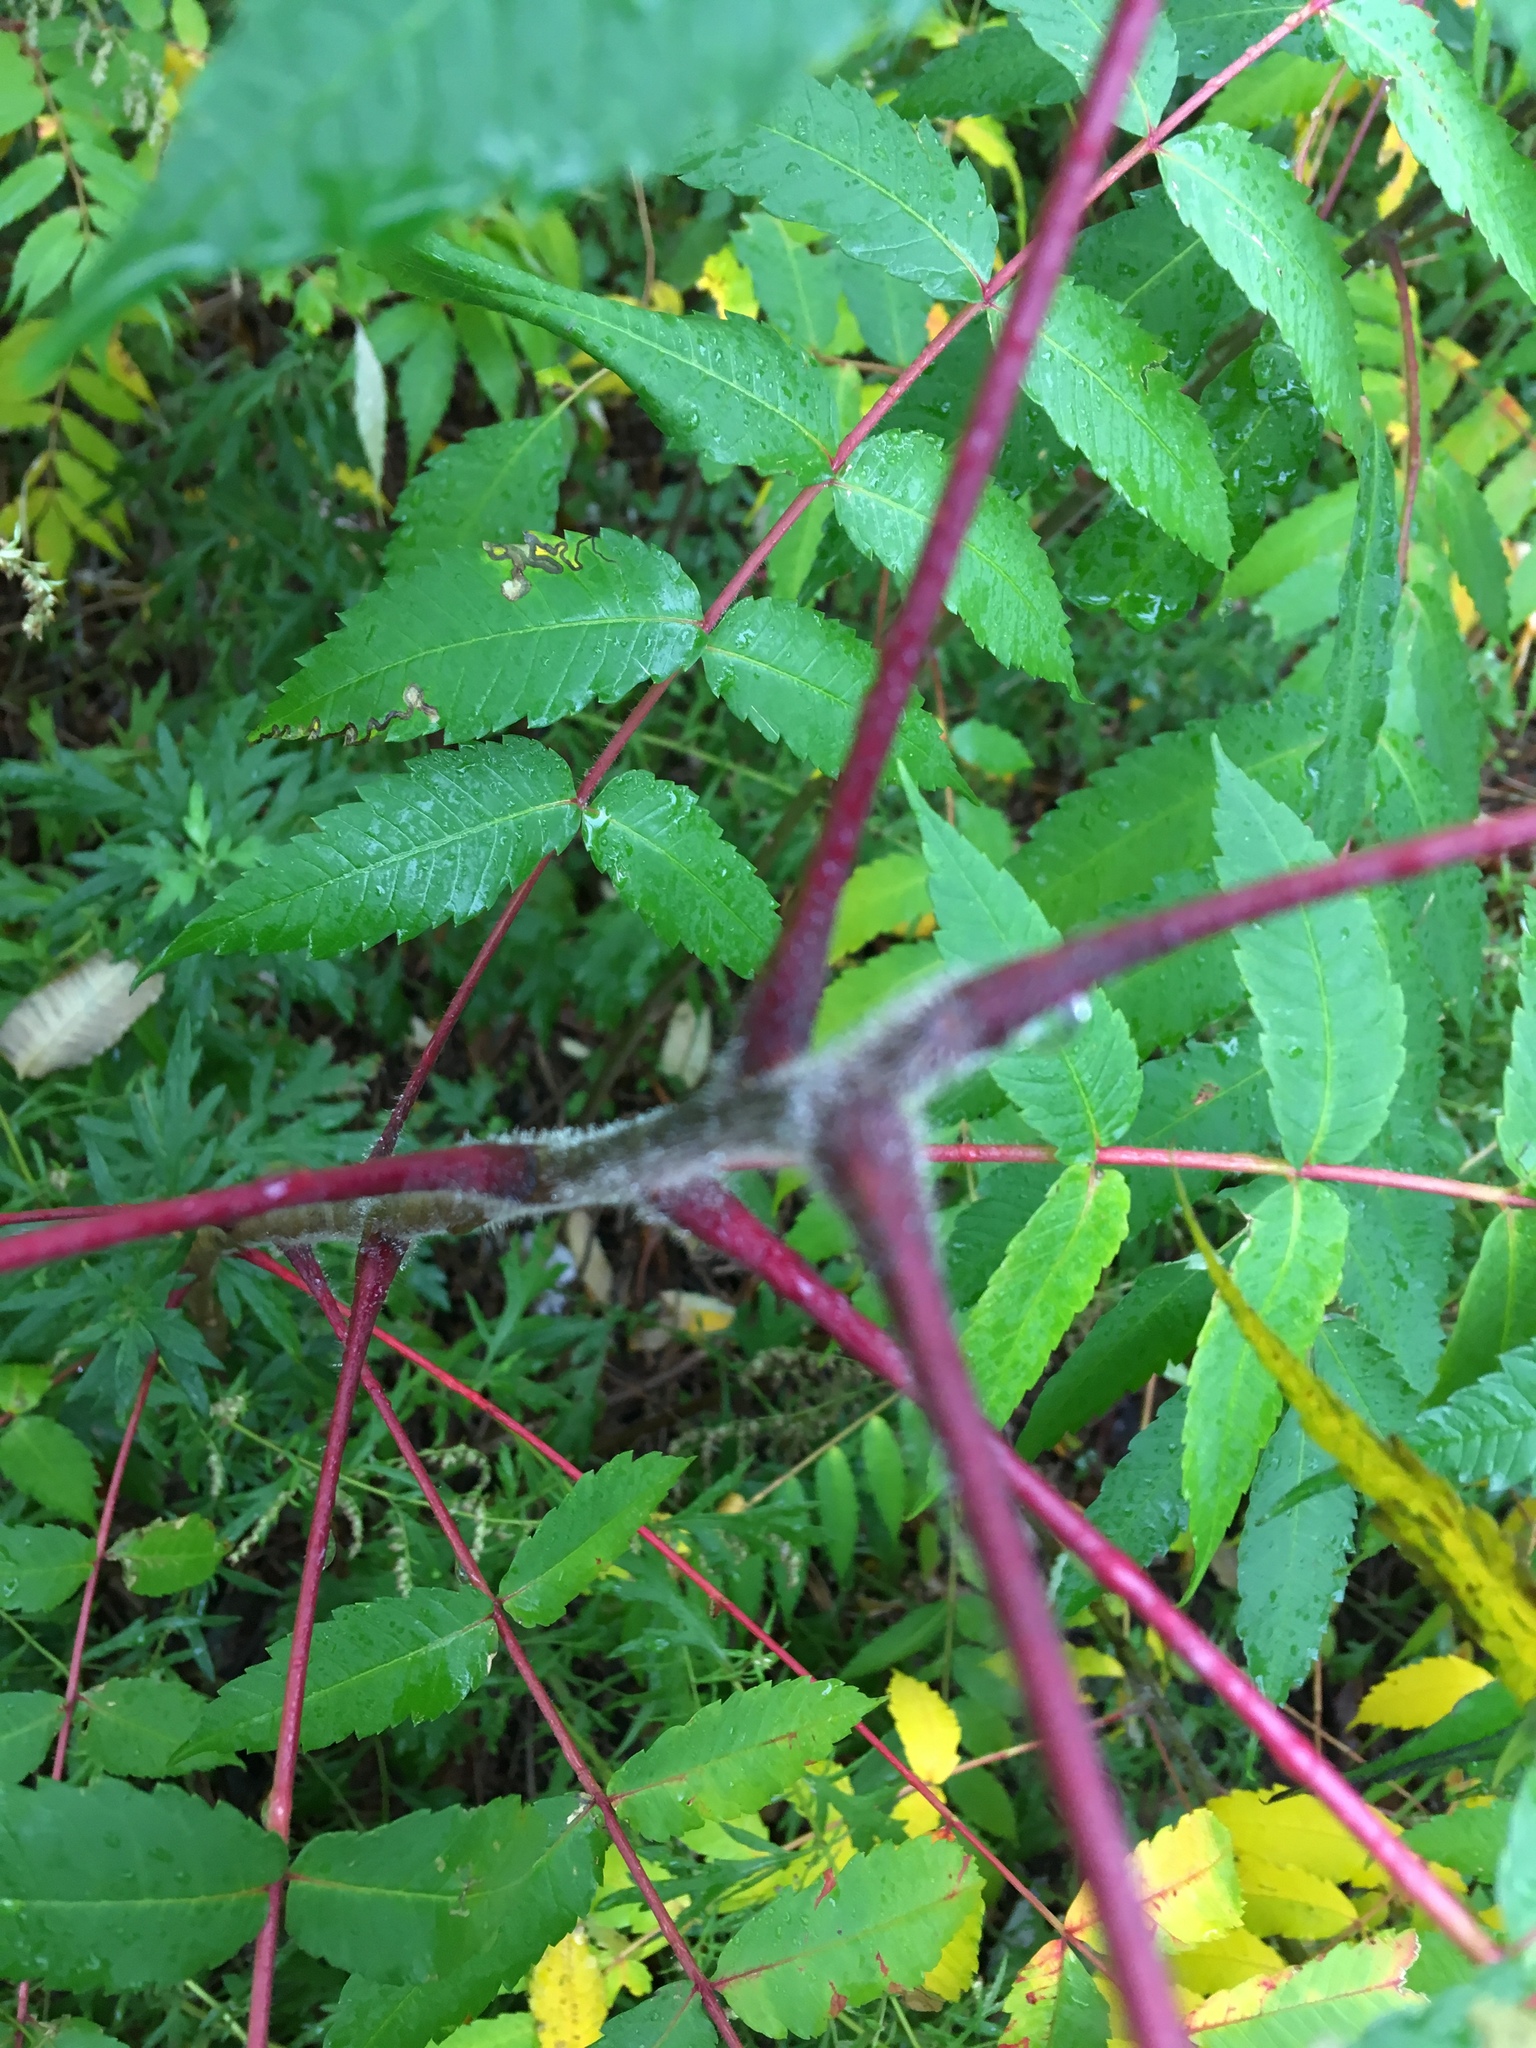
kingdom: Plantae
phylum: Tracheophyta
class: Magnoliopsida
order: Sapindales
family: Anacardiaceae
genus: Rhus
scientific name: Rhus typhina
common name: Staghorn sumac
